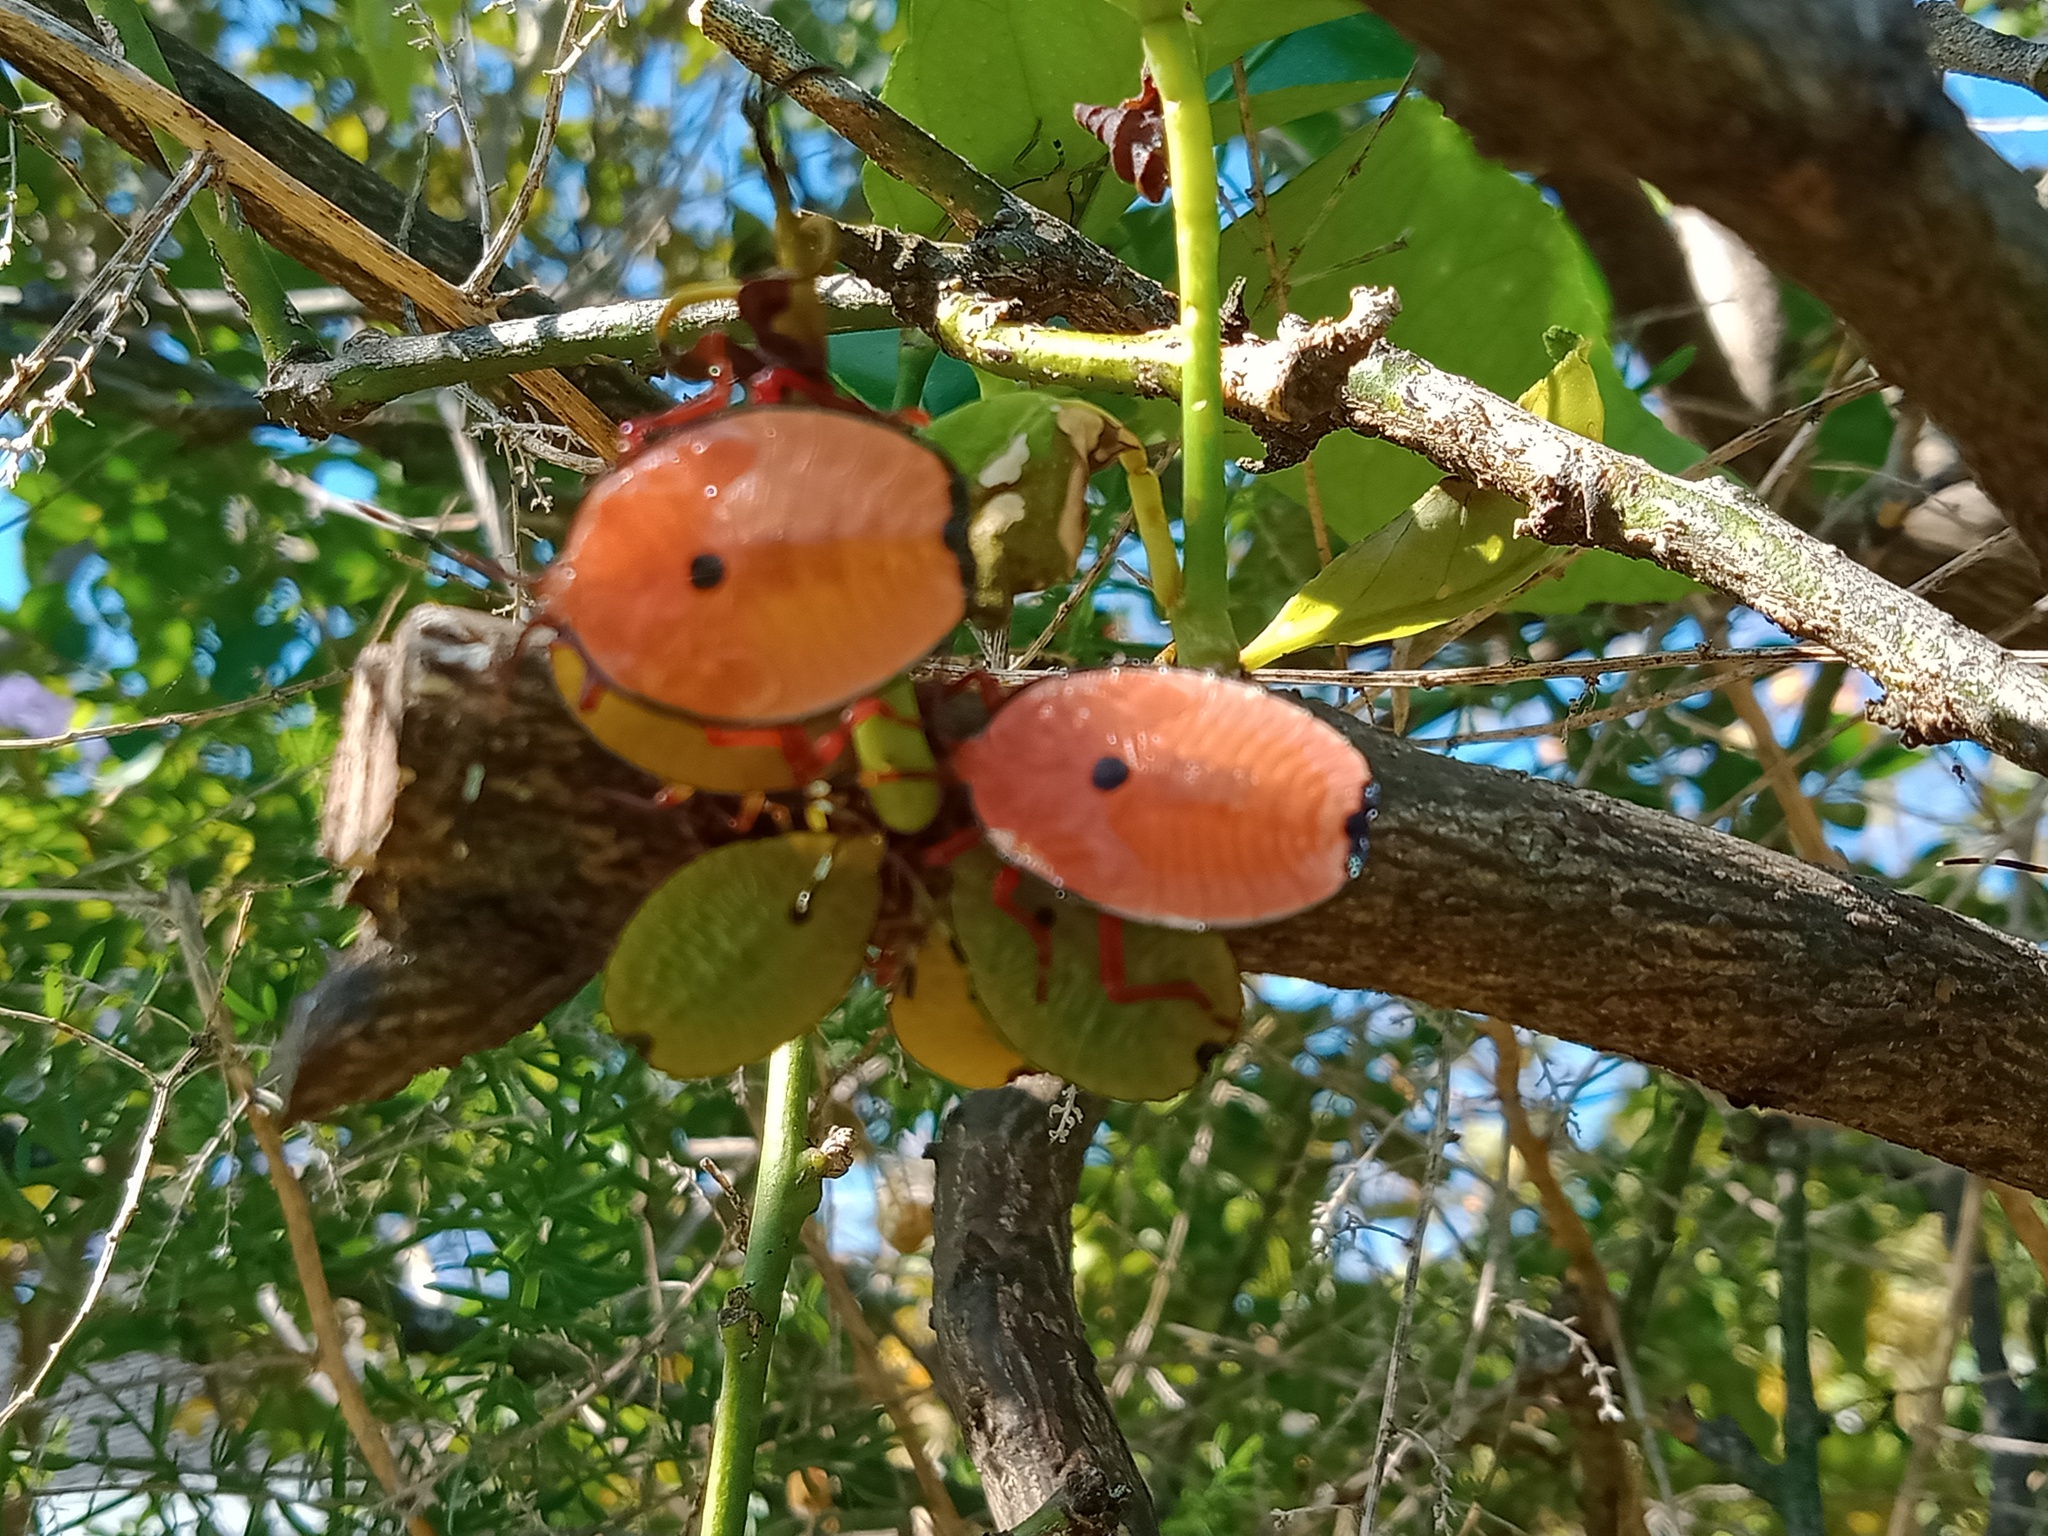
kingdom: Animalia
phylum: Arthropoda
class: Insecta
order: Hemiptera
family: Tessaratomidae
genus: Musgraveia
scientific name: Musgraveia sulciventris
